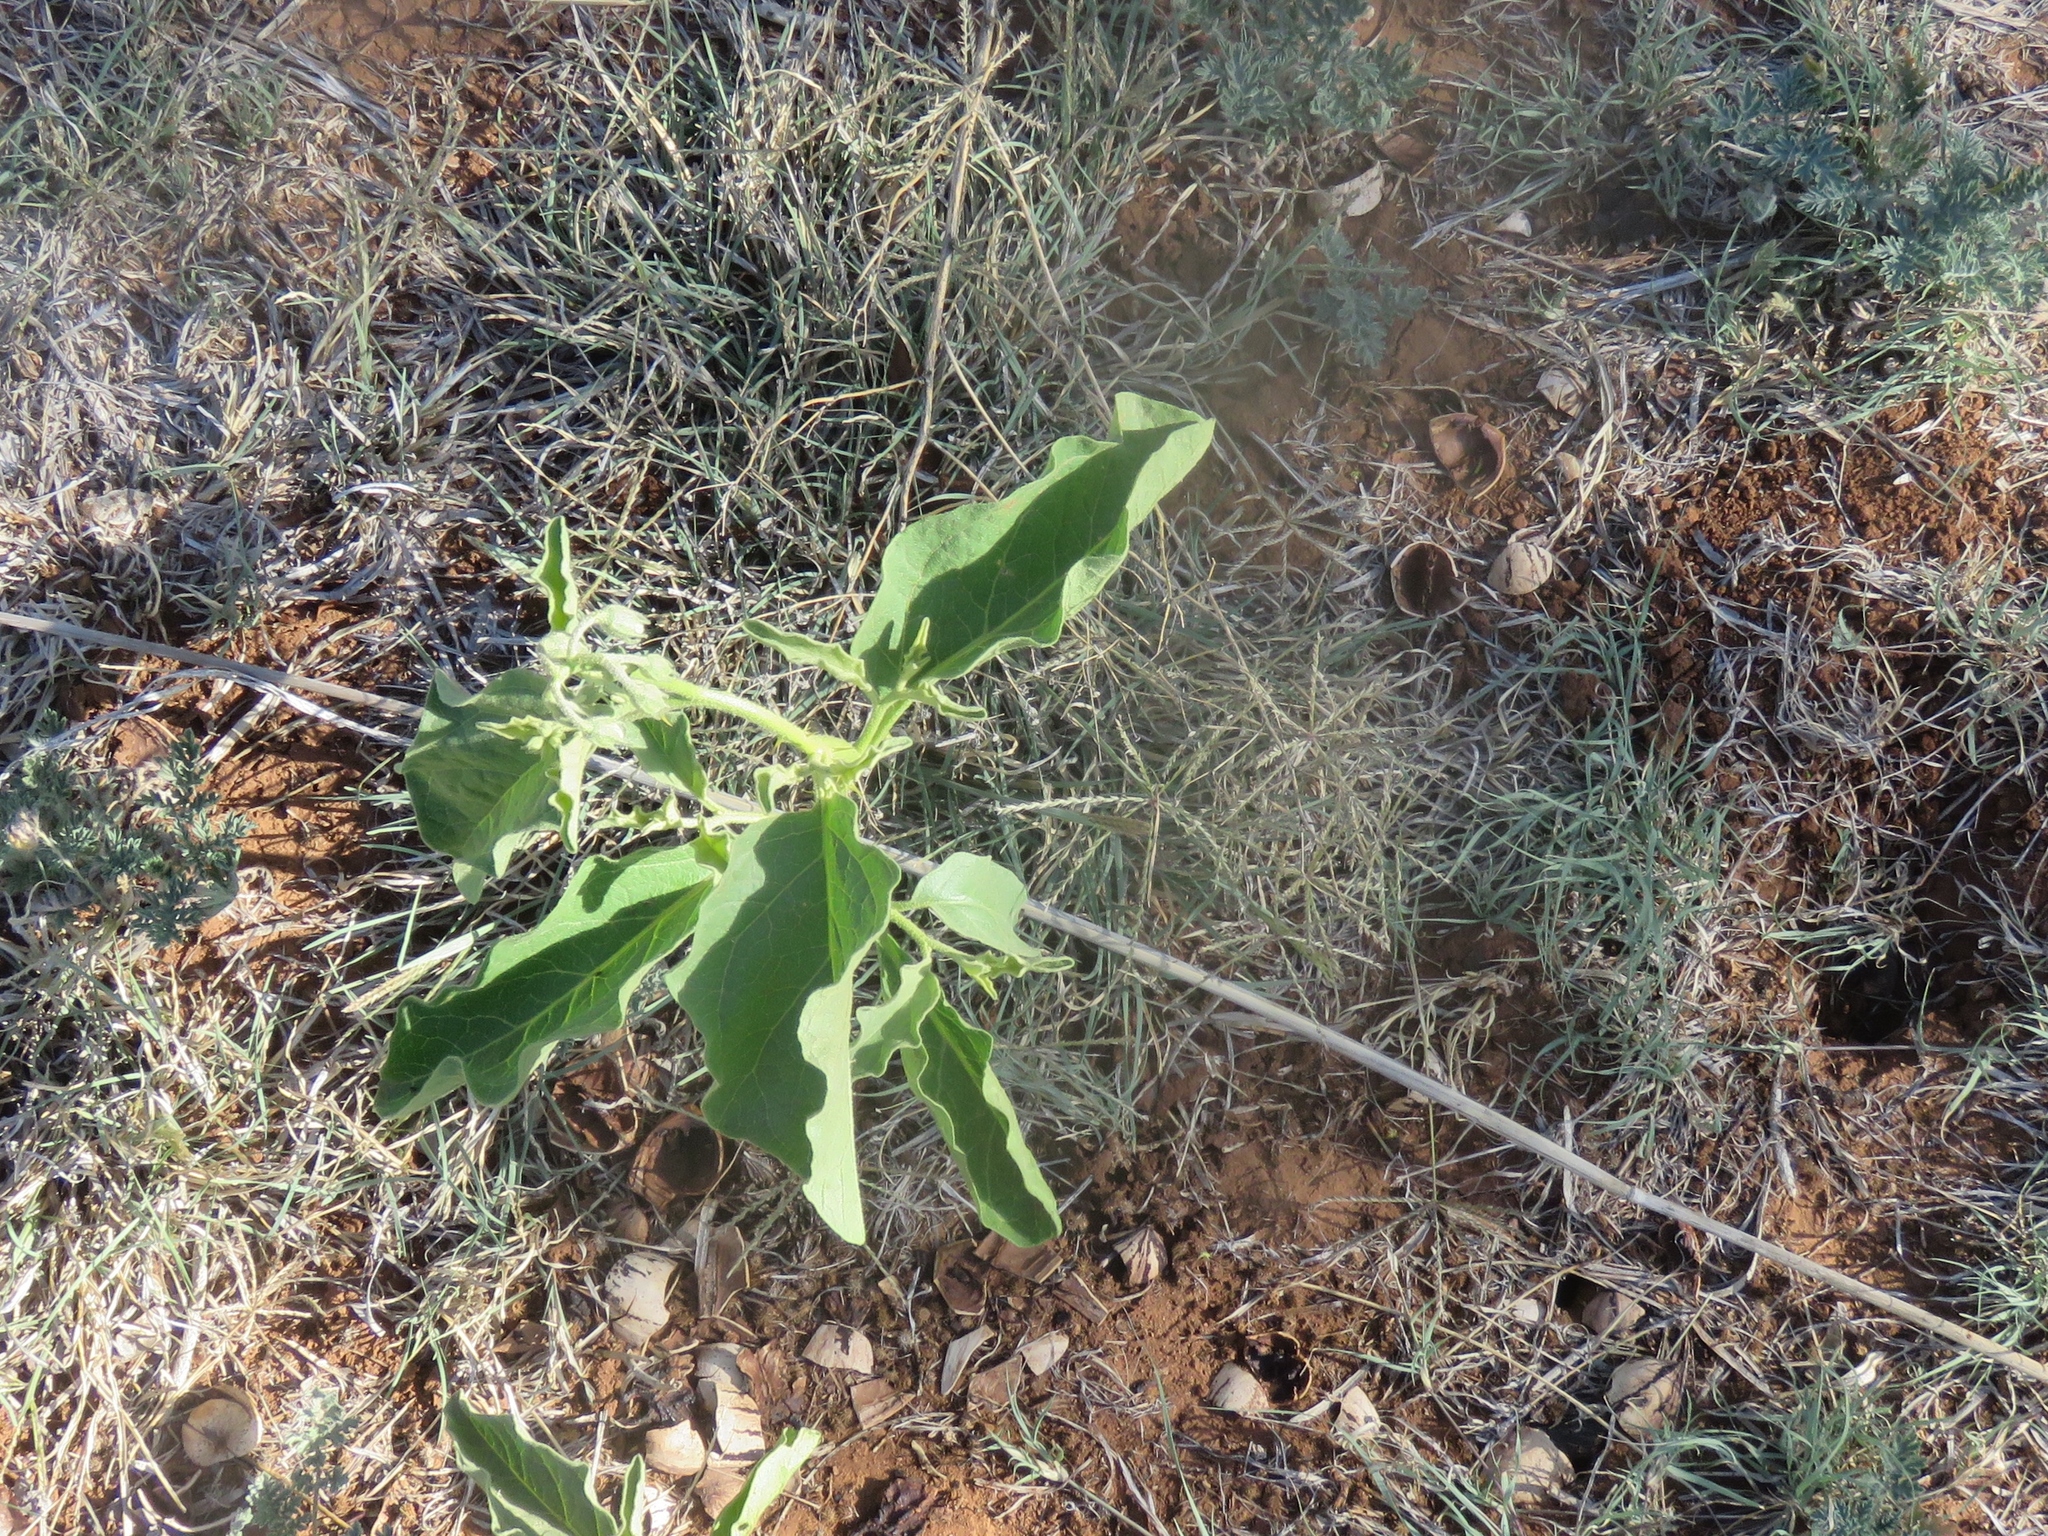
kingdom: Plantae
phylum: Tracheophyta
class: Magnoliopsida
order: Solanales
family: Solanaceae
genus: Solanum
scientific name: Solanum dimidiatum
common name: Carolina horse-nettle
